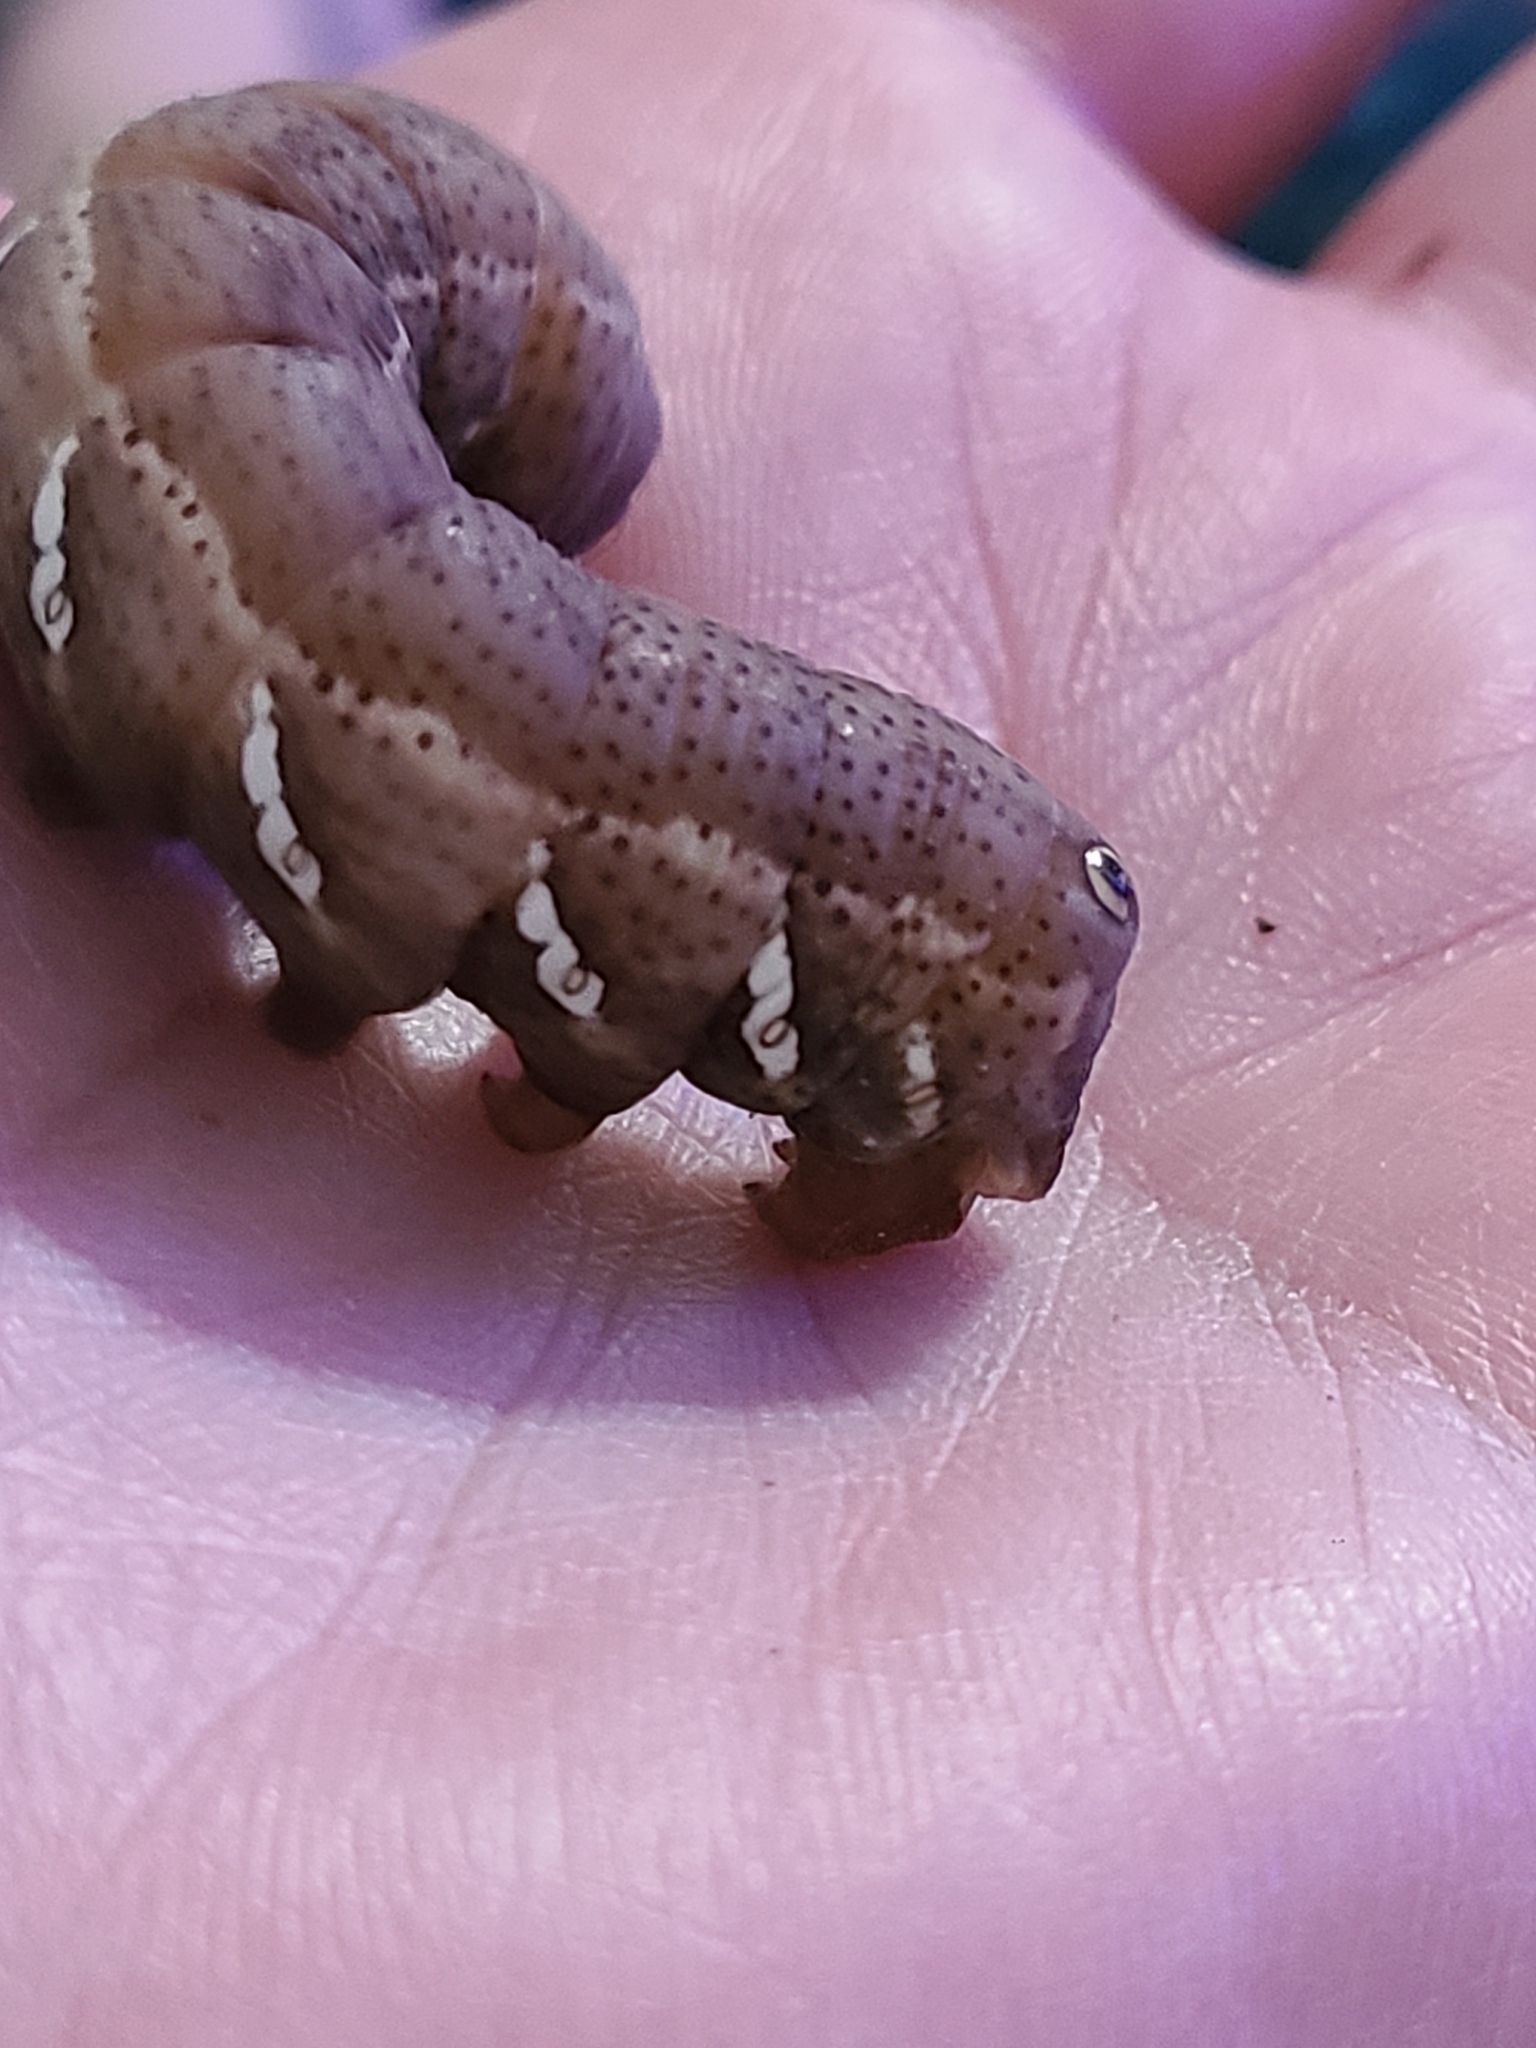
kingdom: Animalia
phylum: Arthropoda
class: Insecta
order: Lepidoptera
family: Sphingidae
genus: Eumorpha
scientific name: Eumorpha achemon
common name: Achemon sphinx
